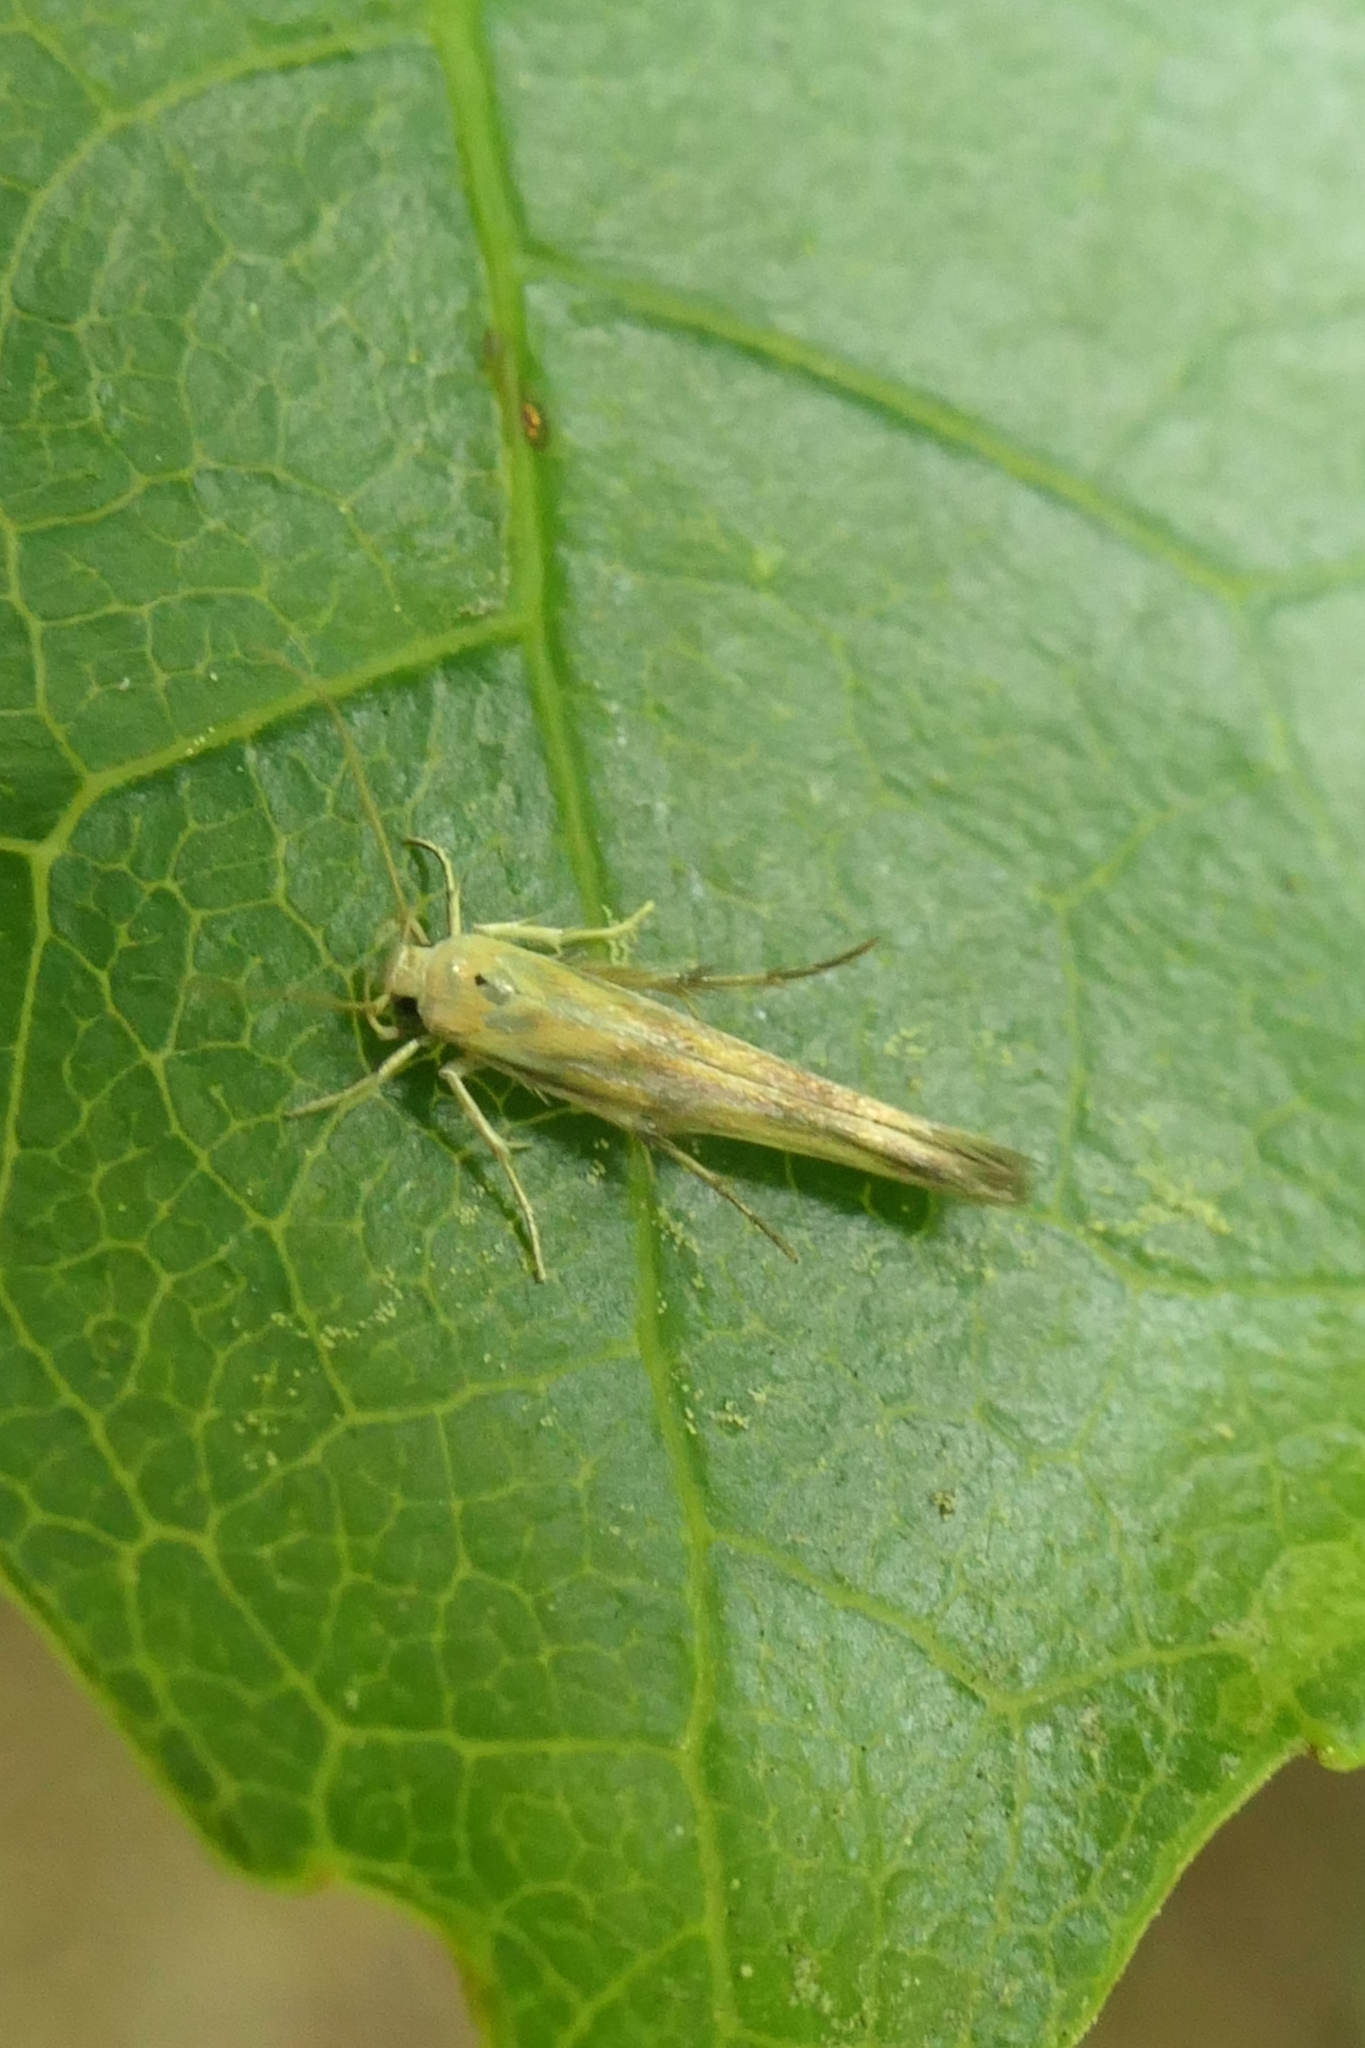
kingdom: Animalia
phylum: Arthropoda
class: Insecta
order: Lepidoptera
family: Stathmopodidae
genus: Stathmopoda
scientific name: Stathmopoda horticola
